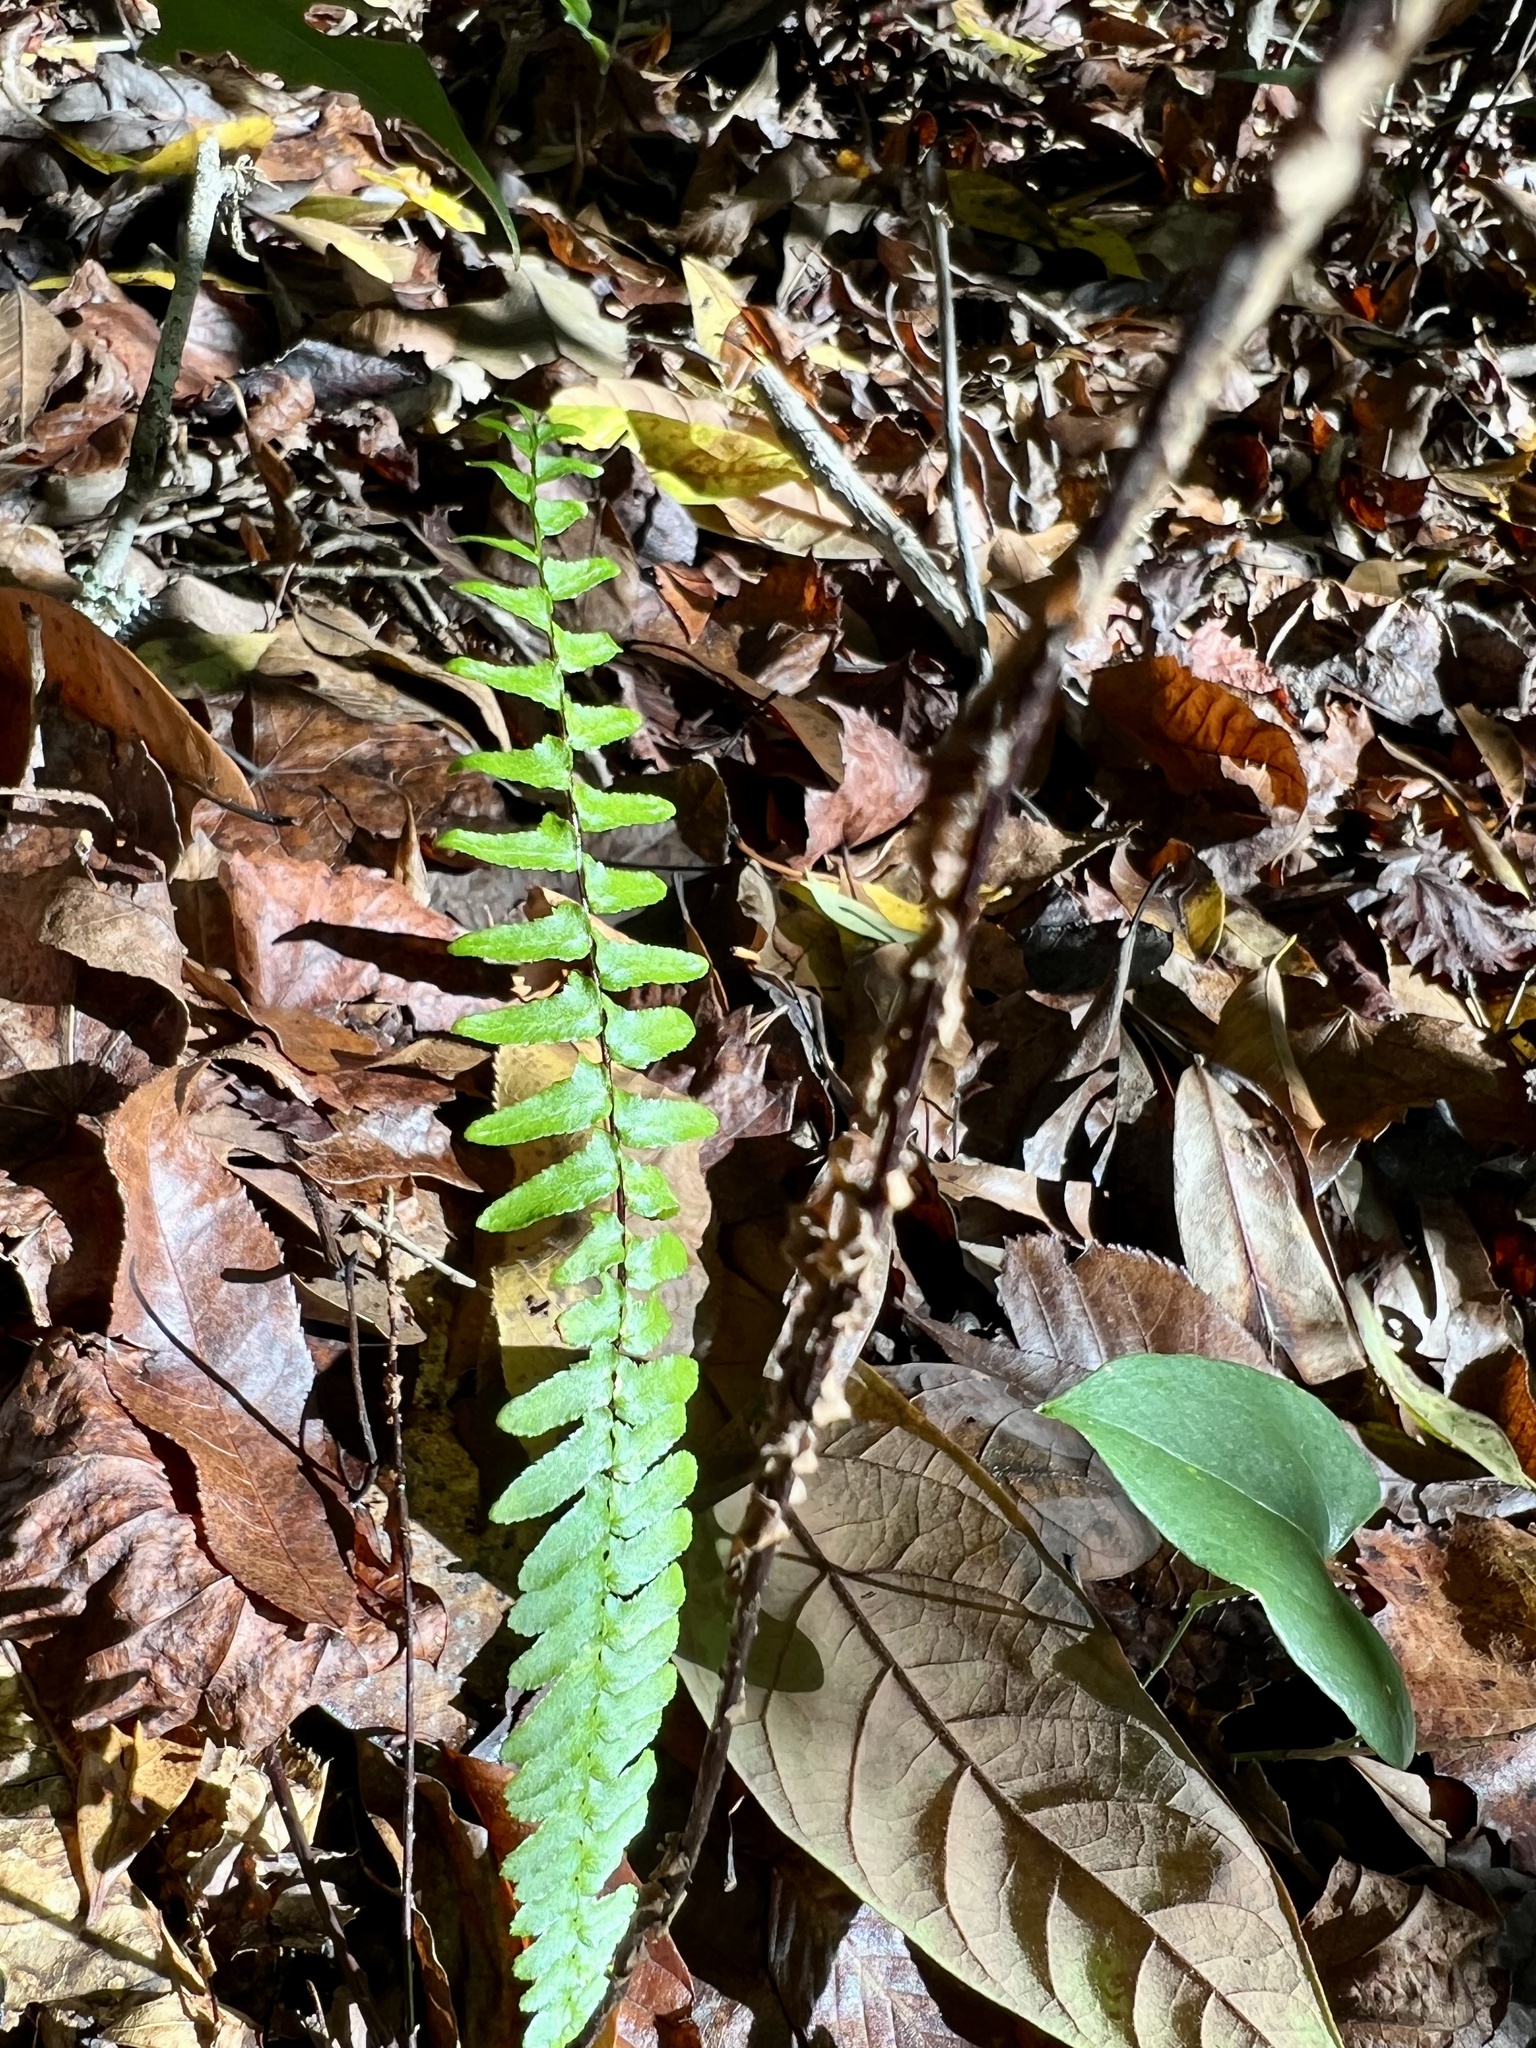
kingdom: Plantae
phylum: Tracheophyta
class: Polypodiopsida
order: Polypodiales
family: Aspleniaceae
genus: Asplenium
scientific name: Asplenium platyneuron
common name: Ebony spleenwort
